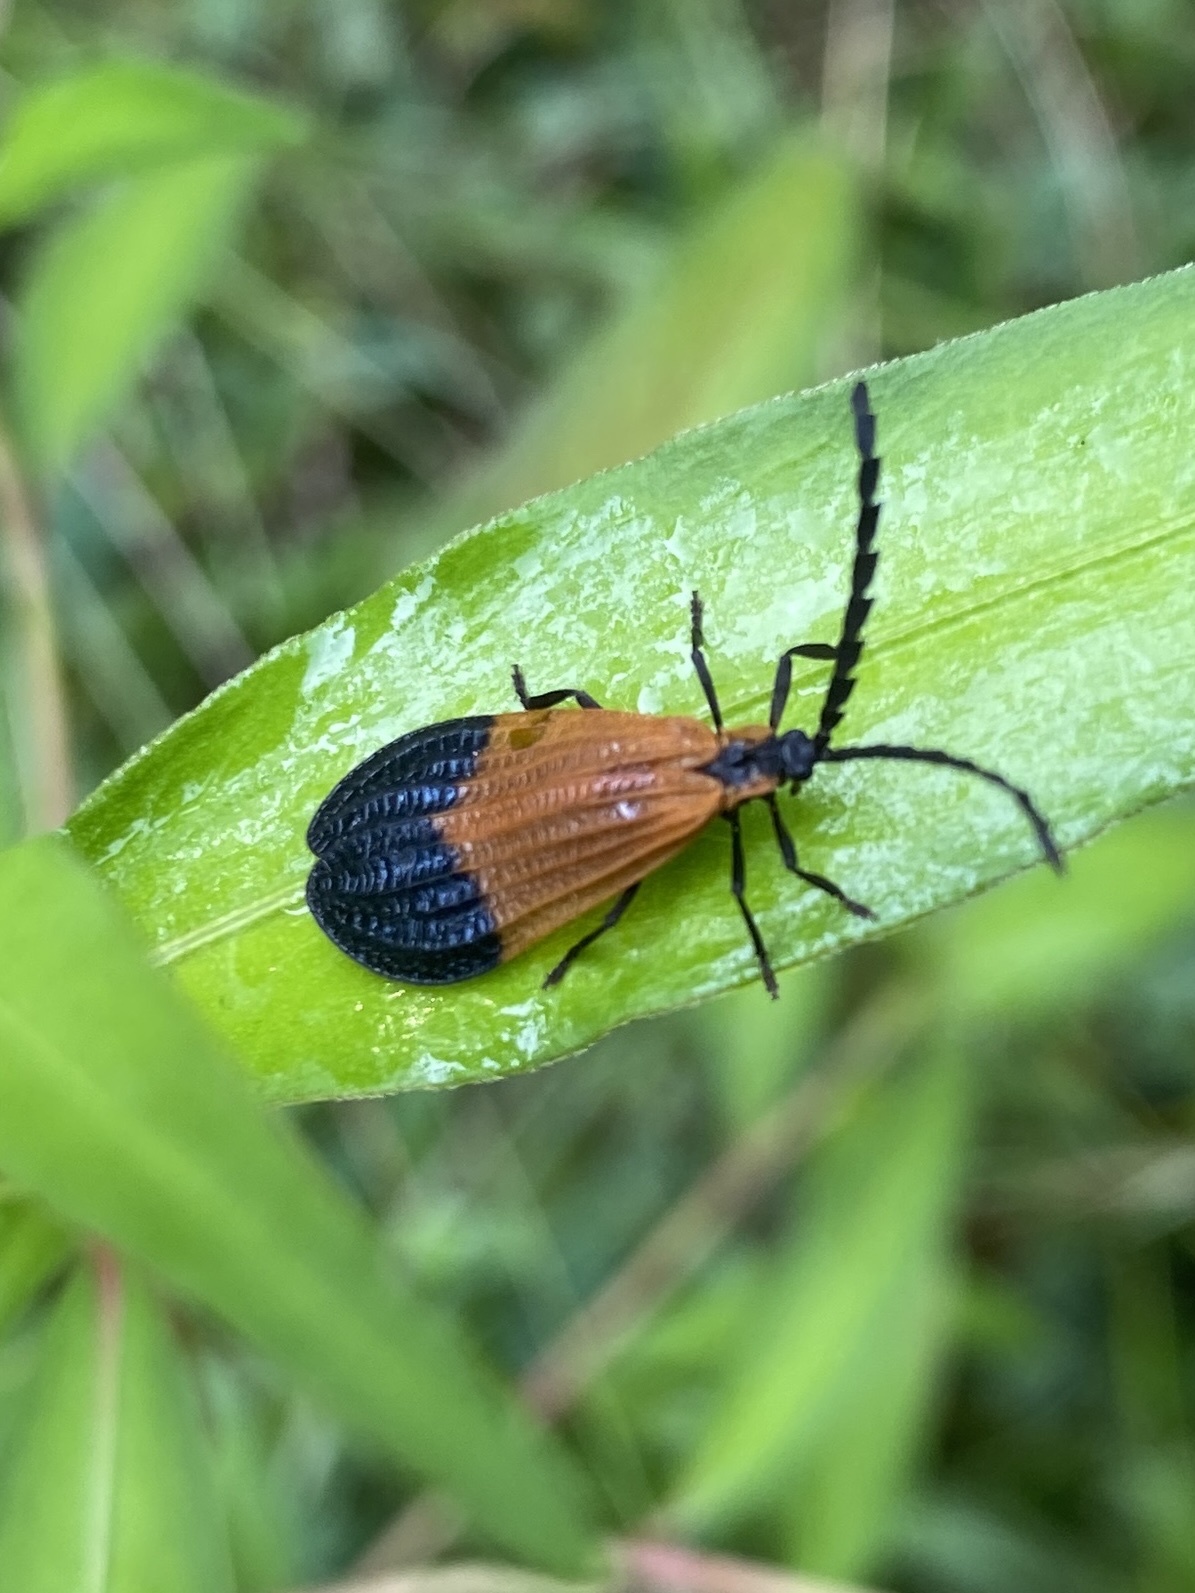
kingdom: Animalia
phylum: Arthropoda
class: Insecta
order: Coleoptera
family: Lycidae
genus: Calopteron
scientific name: Calopteron terminale
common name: End band net-winged beetle
